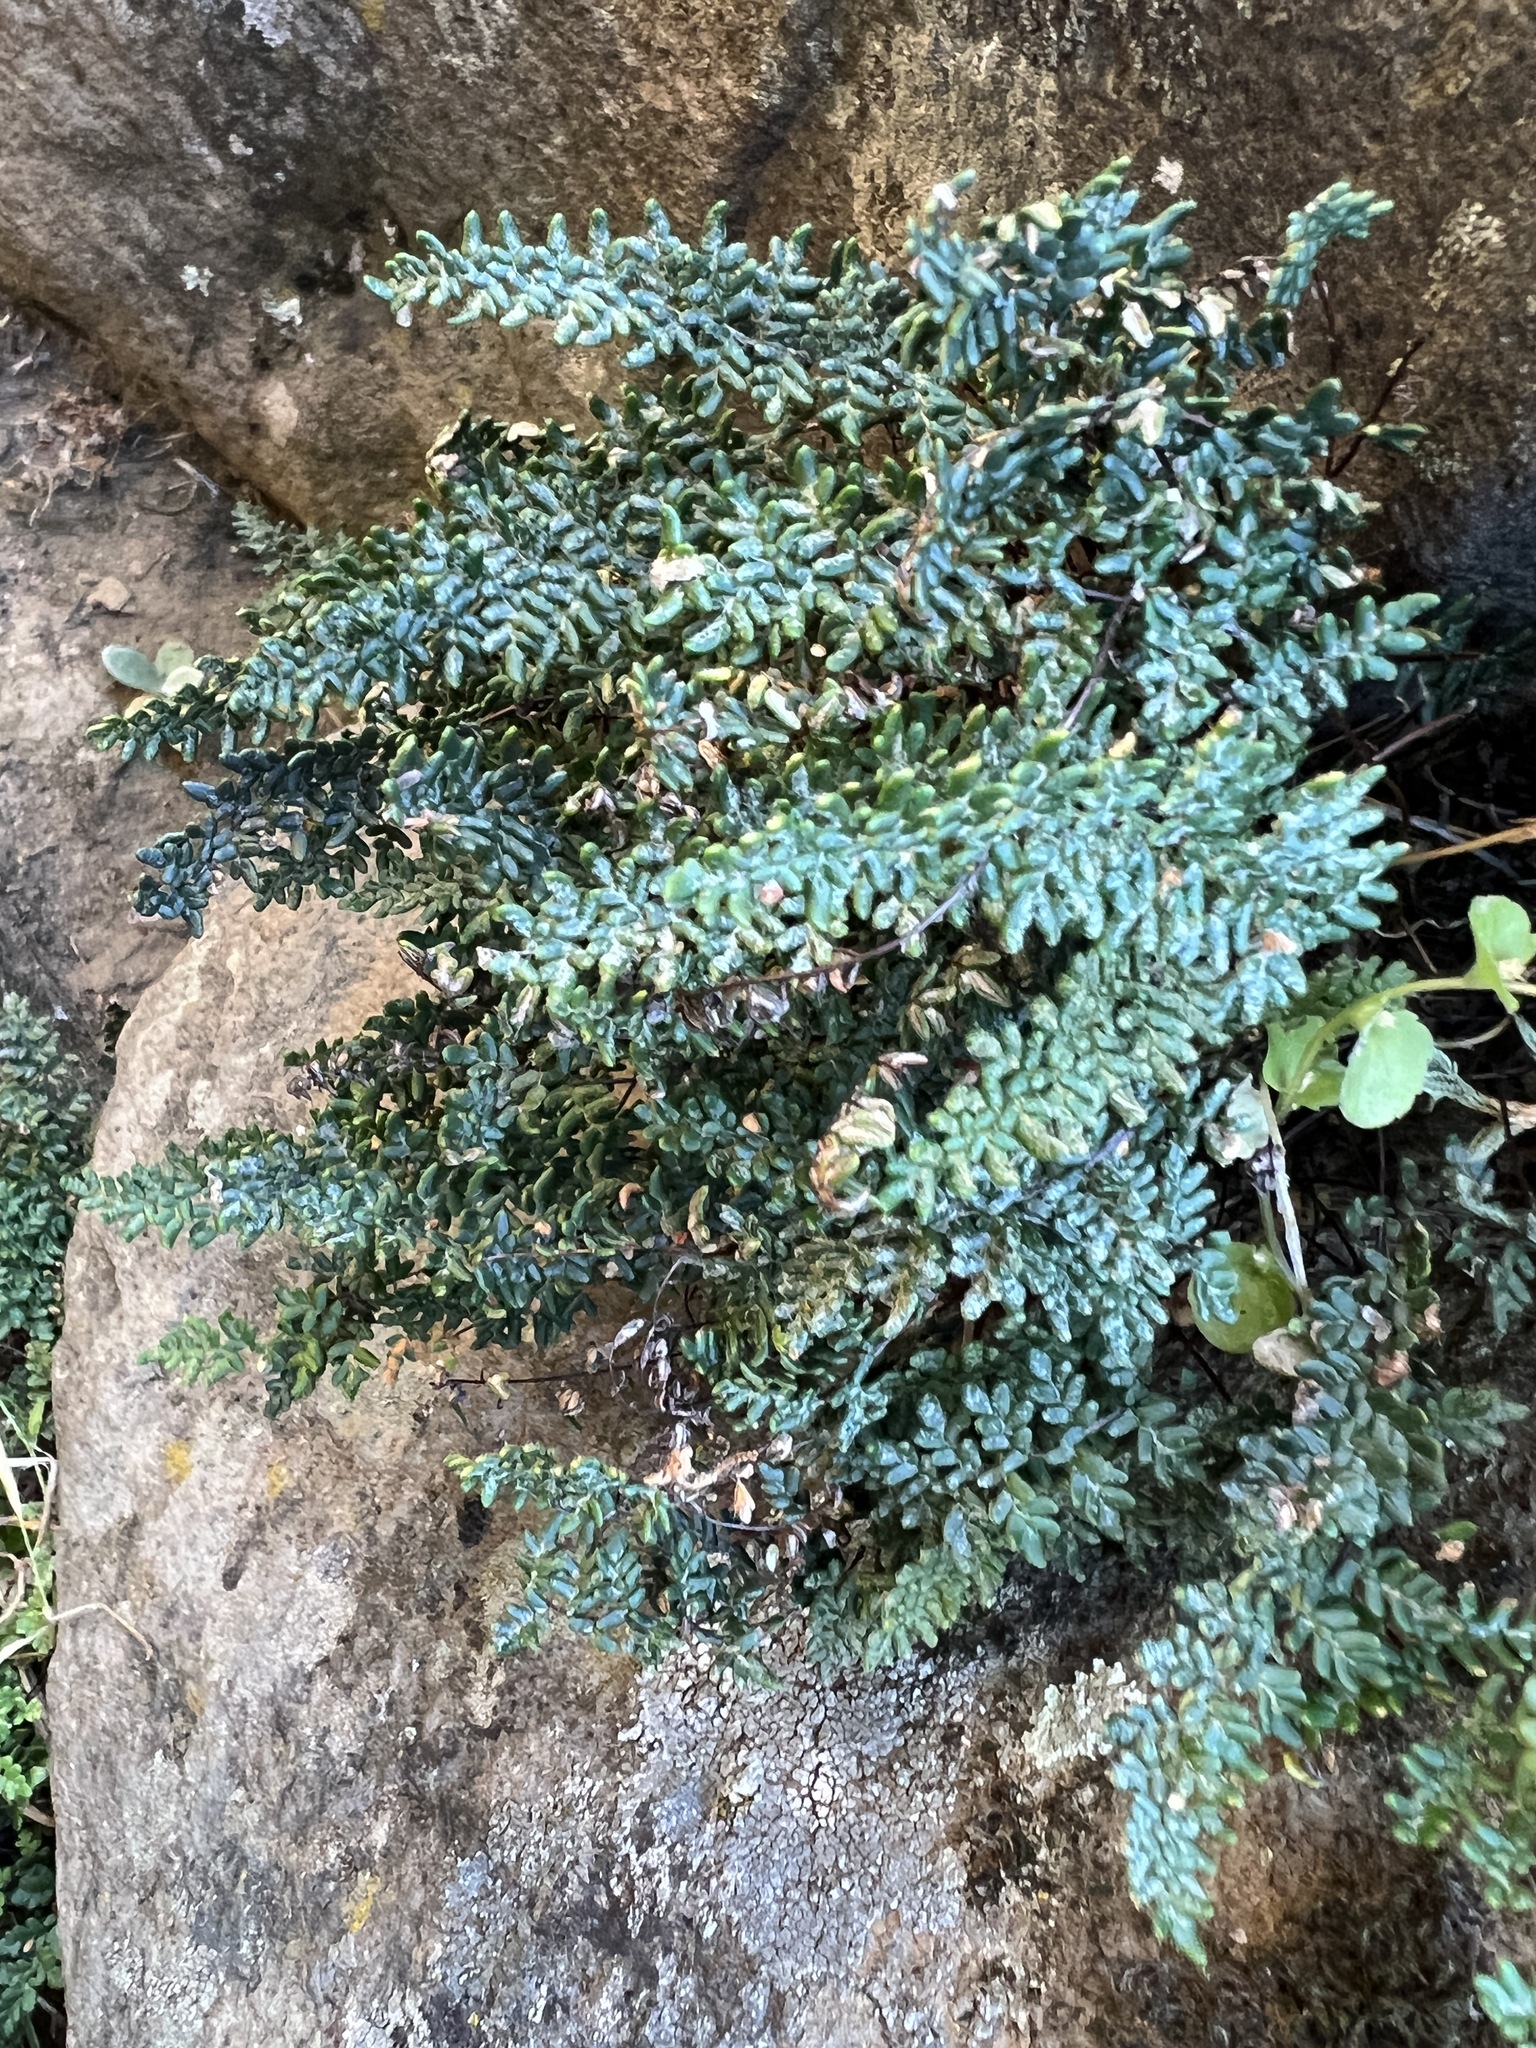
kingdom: Plantae
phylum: Tracheophyta
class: Polypodiopsida
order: Polypodiales
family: Pteridaceae
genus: Myriopteris
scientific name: Myriopteris gracillima
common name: Lace fern
